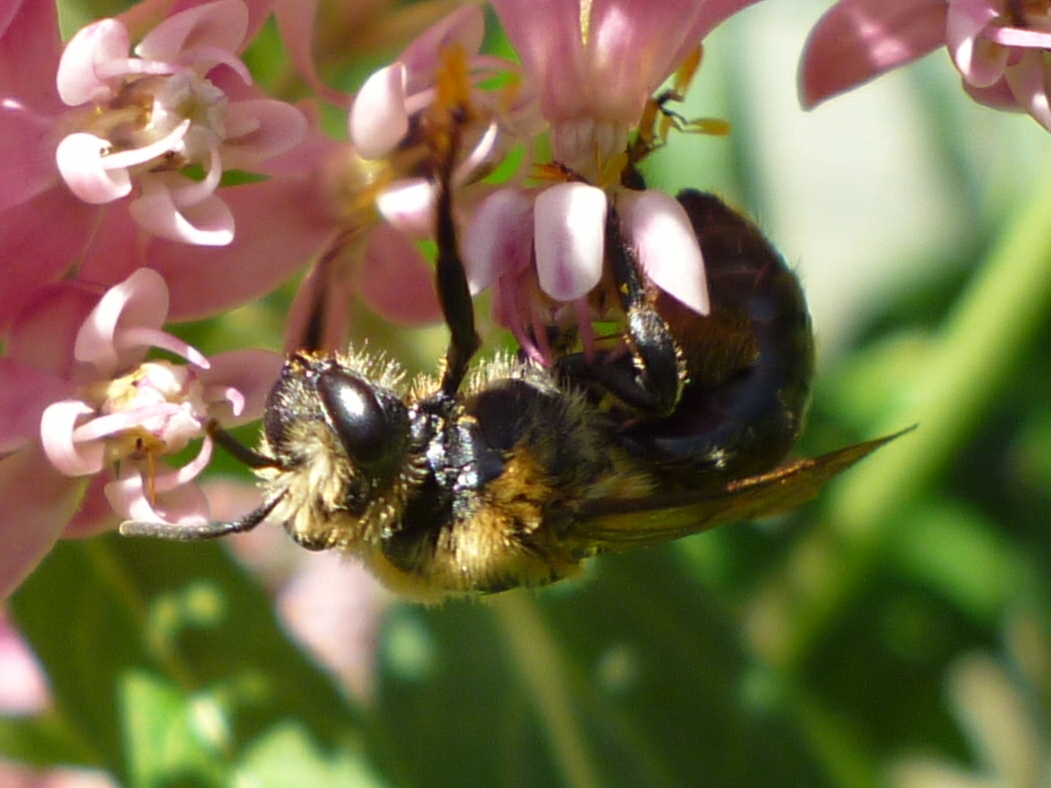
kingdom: Animalia
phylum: Arthropoda
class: Insecta
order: Hymenoptera
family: Colletidae
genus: Colletes
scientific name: Colletes thoracicus
